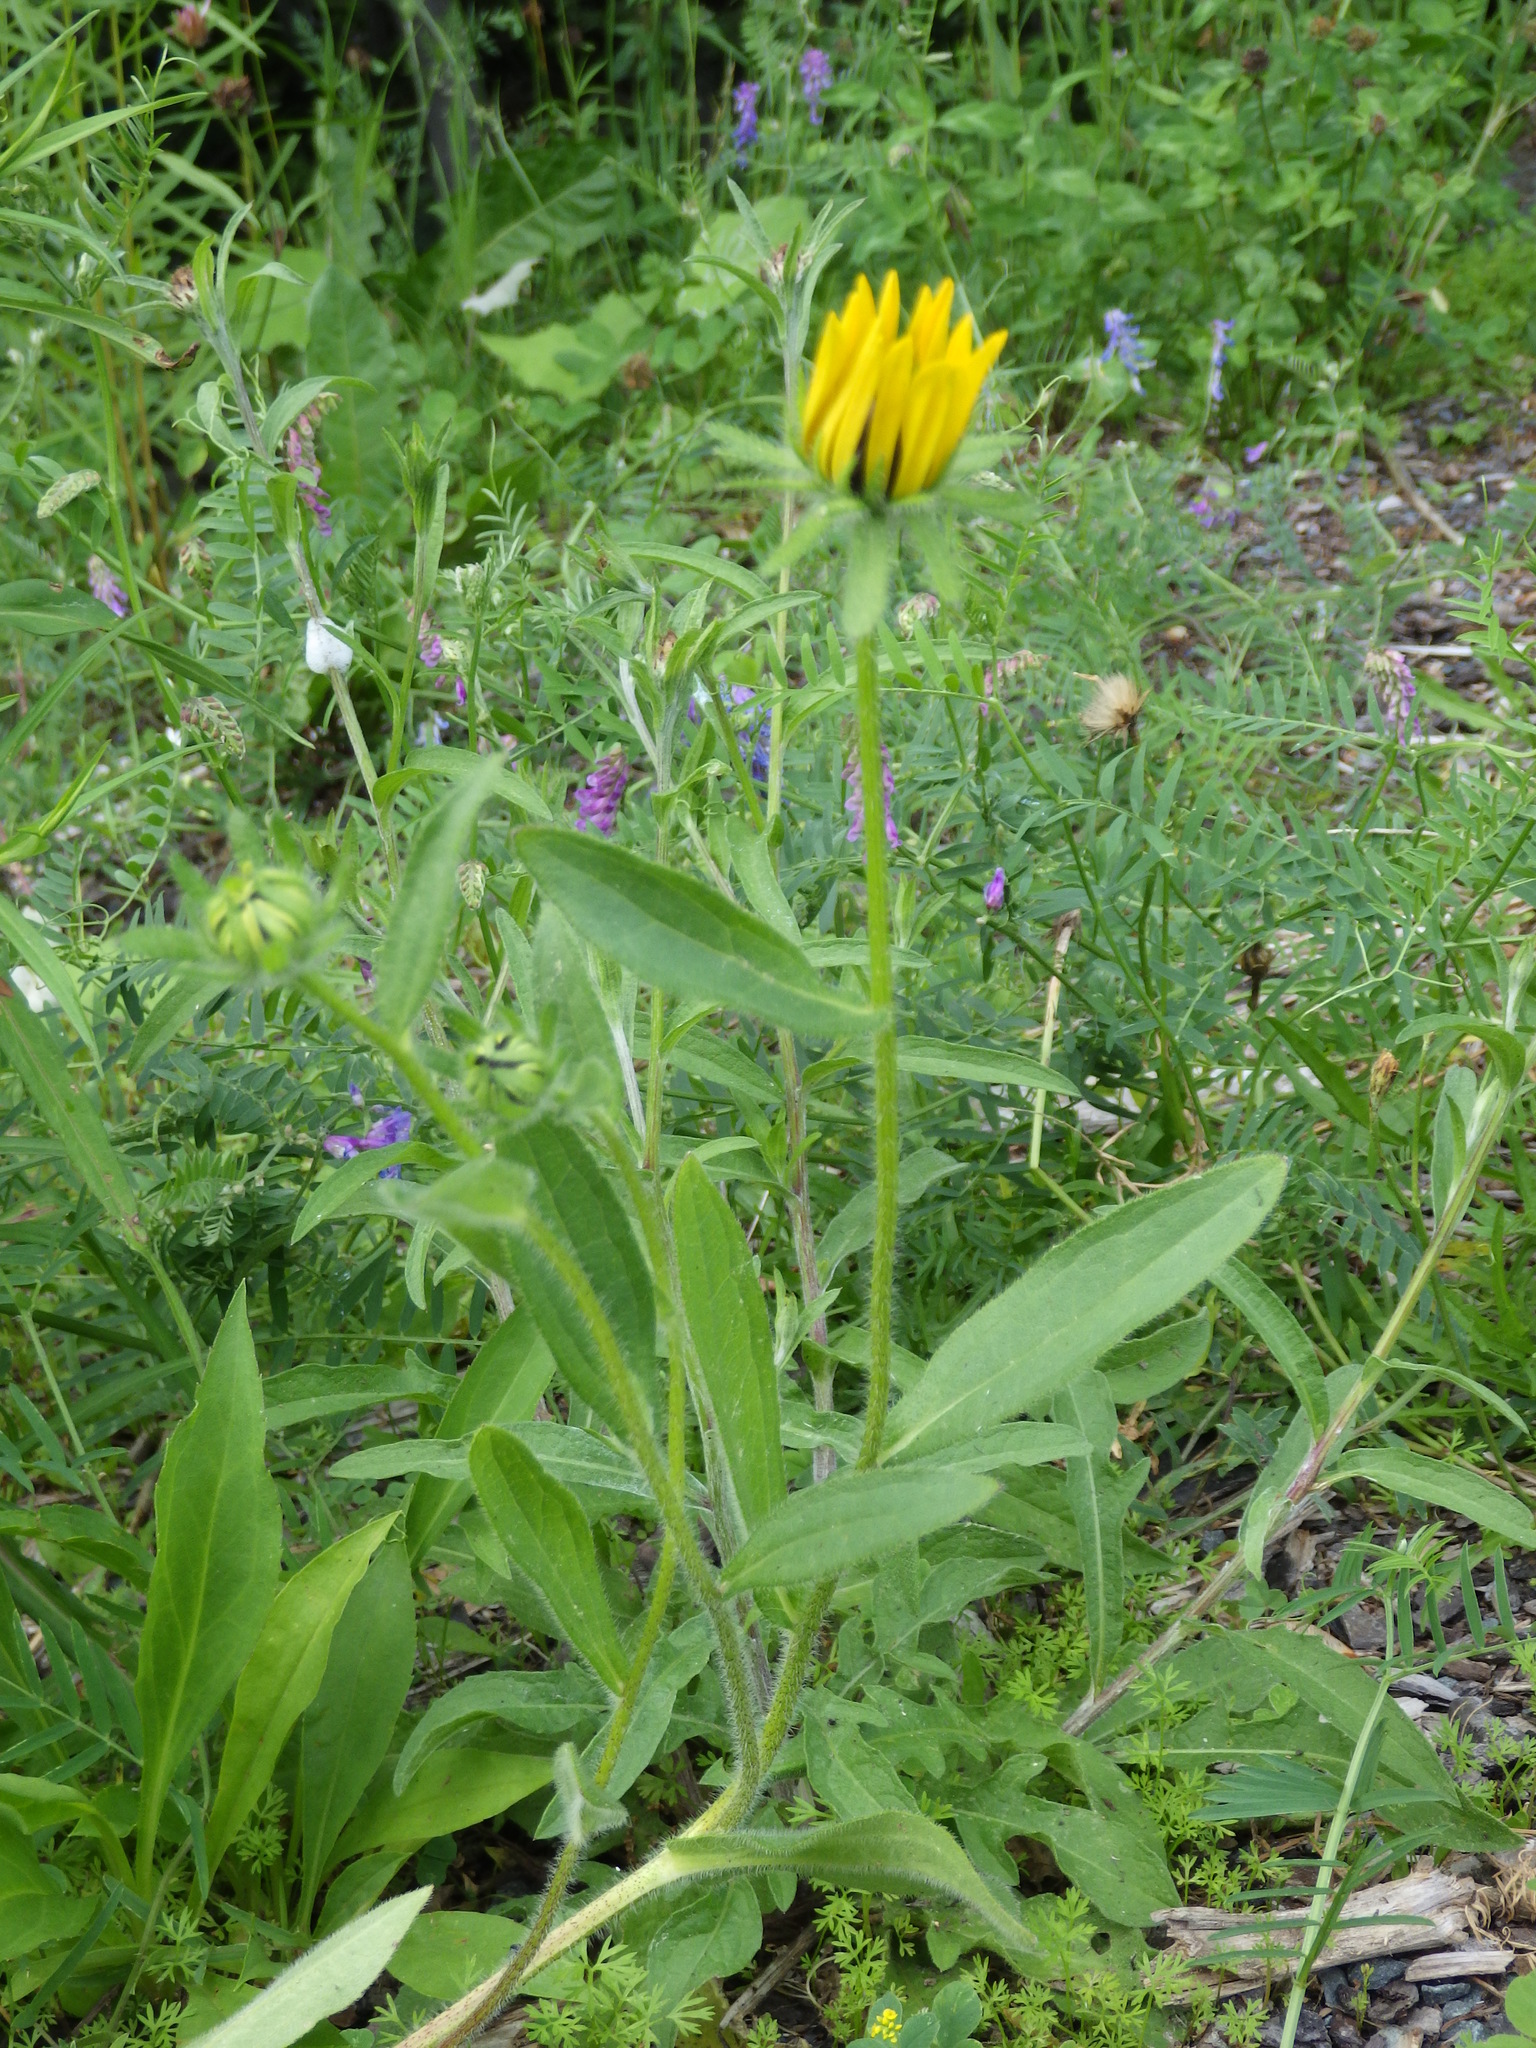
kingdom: Plantae
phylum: Tracheophyta
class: Magnoliopsida
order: Asterales
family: Asteraceae
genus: Rudbeckia
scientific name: Rudbeckia hirta
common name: Black-eyed-susan
